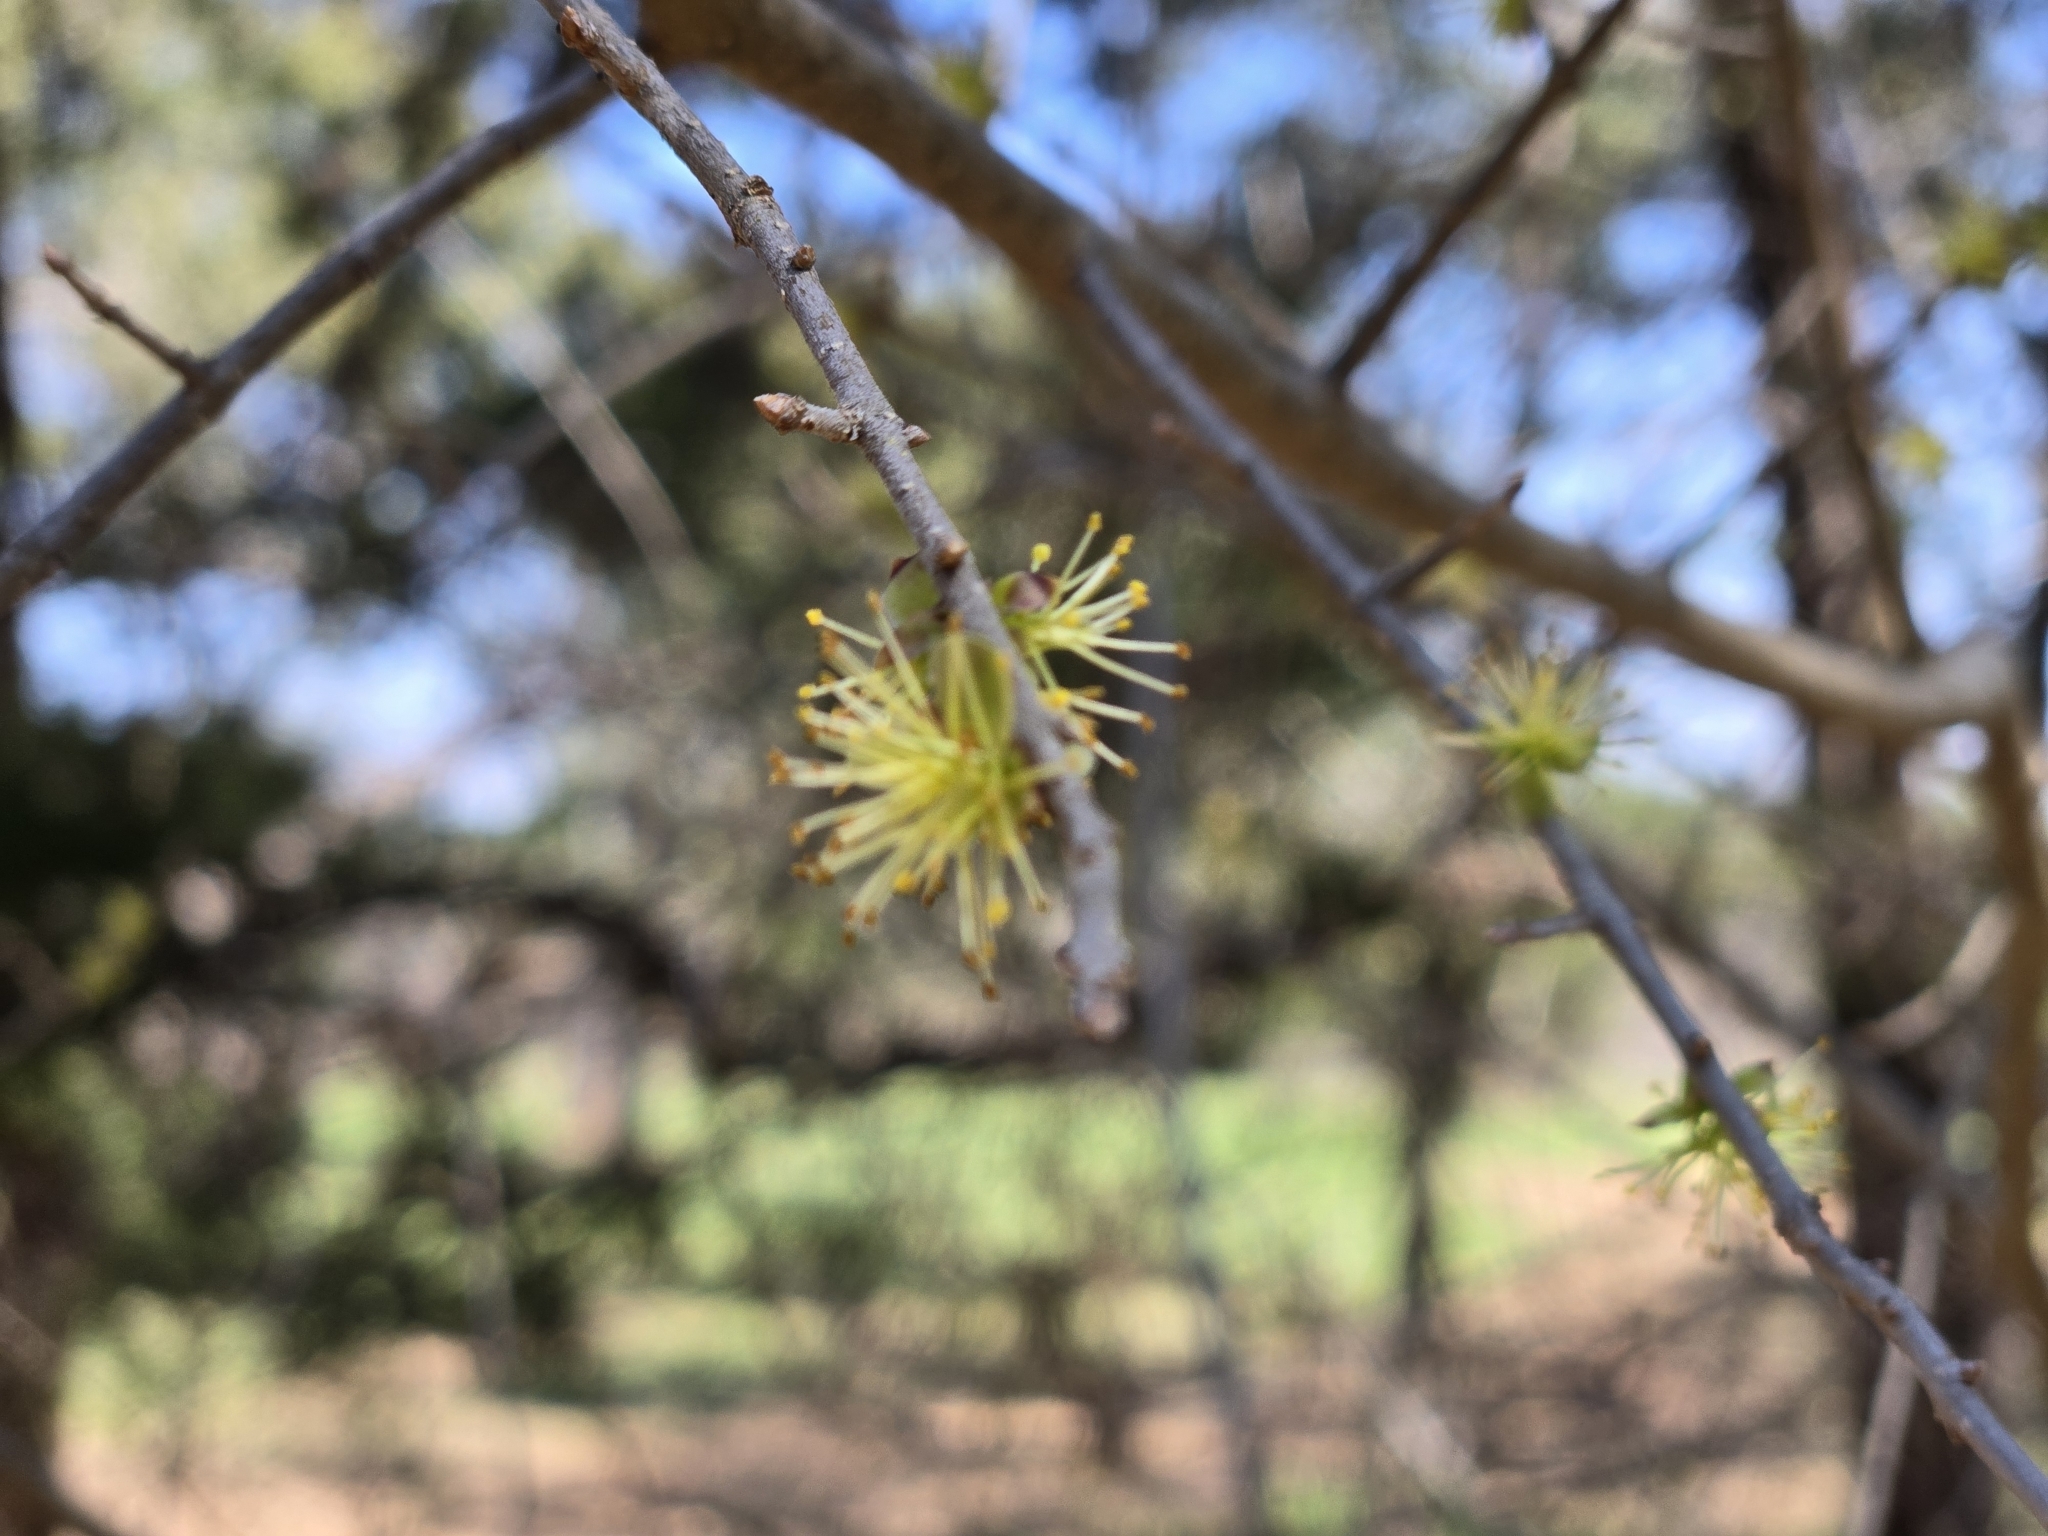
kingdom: Plantae
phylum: Tracheophyta
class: Magnoliopsida
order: Lamiales
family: Oleaceae
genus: Forestiera
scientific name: Forestiera pubescens
